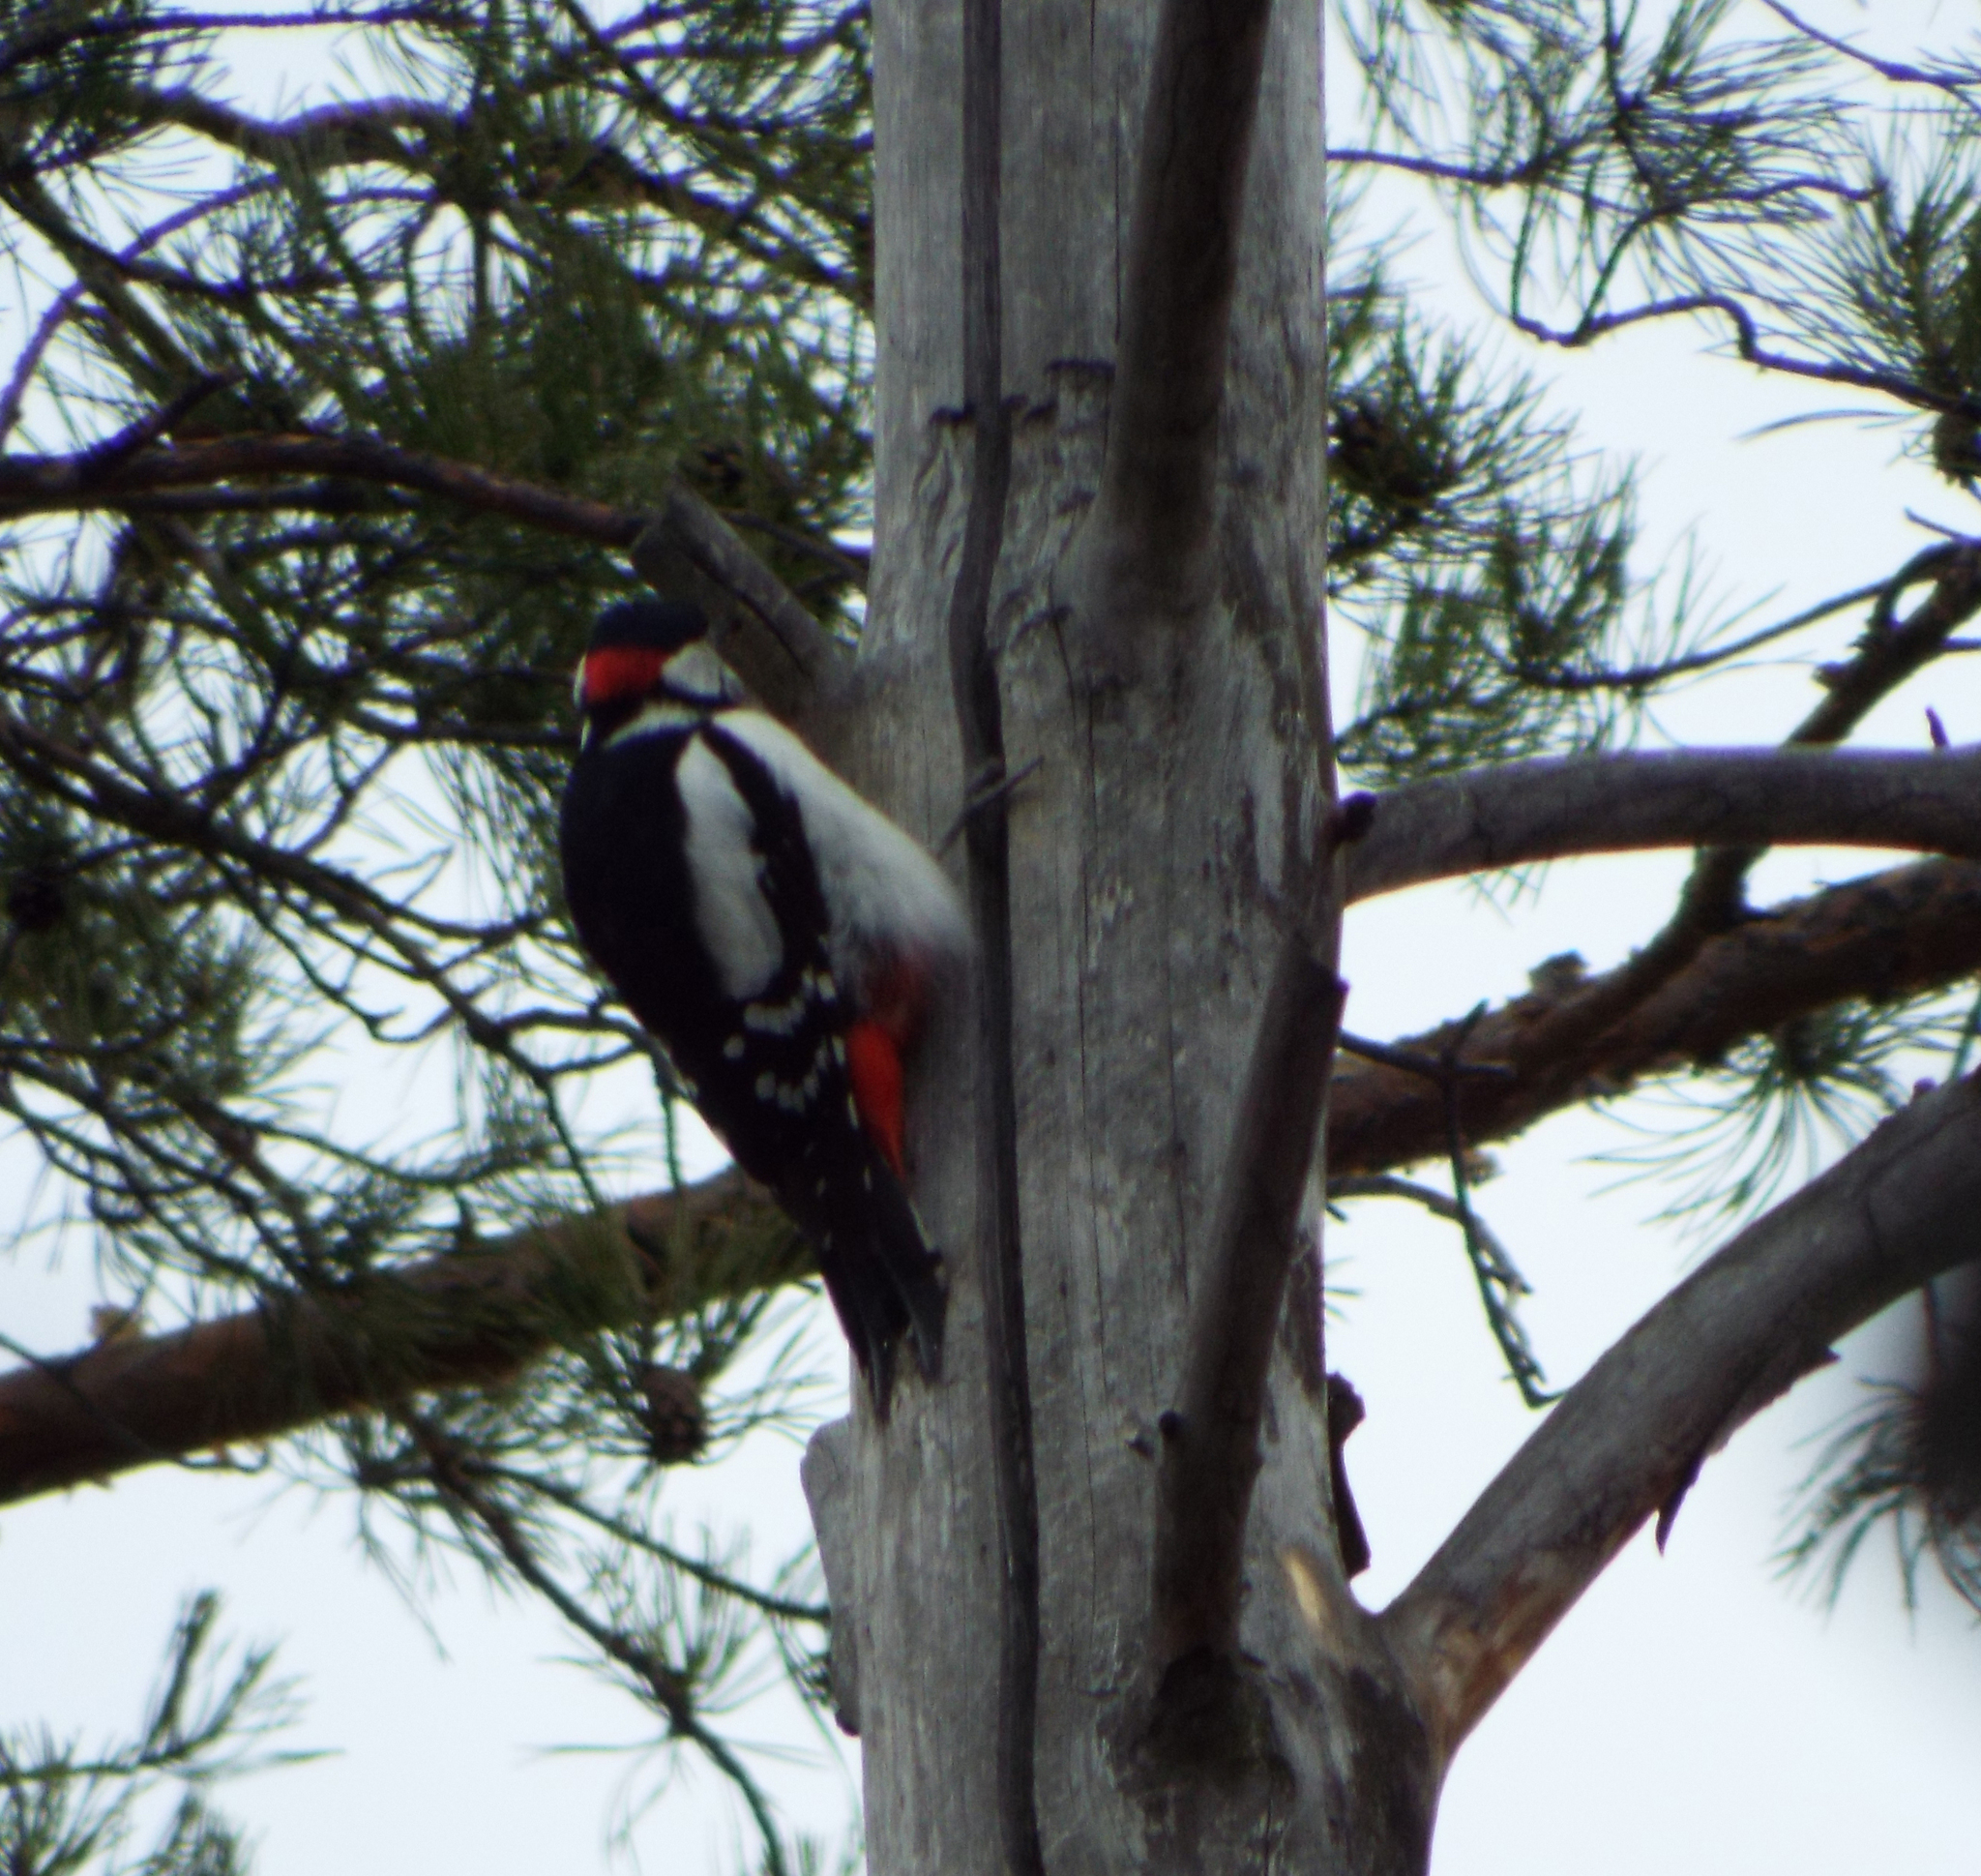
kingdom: Animalia
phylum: Chordata
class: Aves
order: Piciformes
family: Picidae
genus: Dendrocopos
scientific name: Dendrocopos major
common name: Great spotted woodpecker
